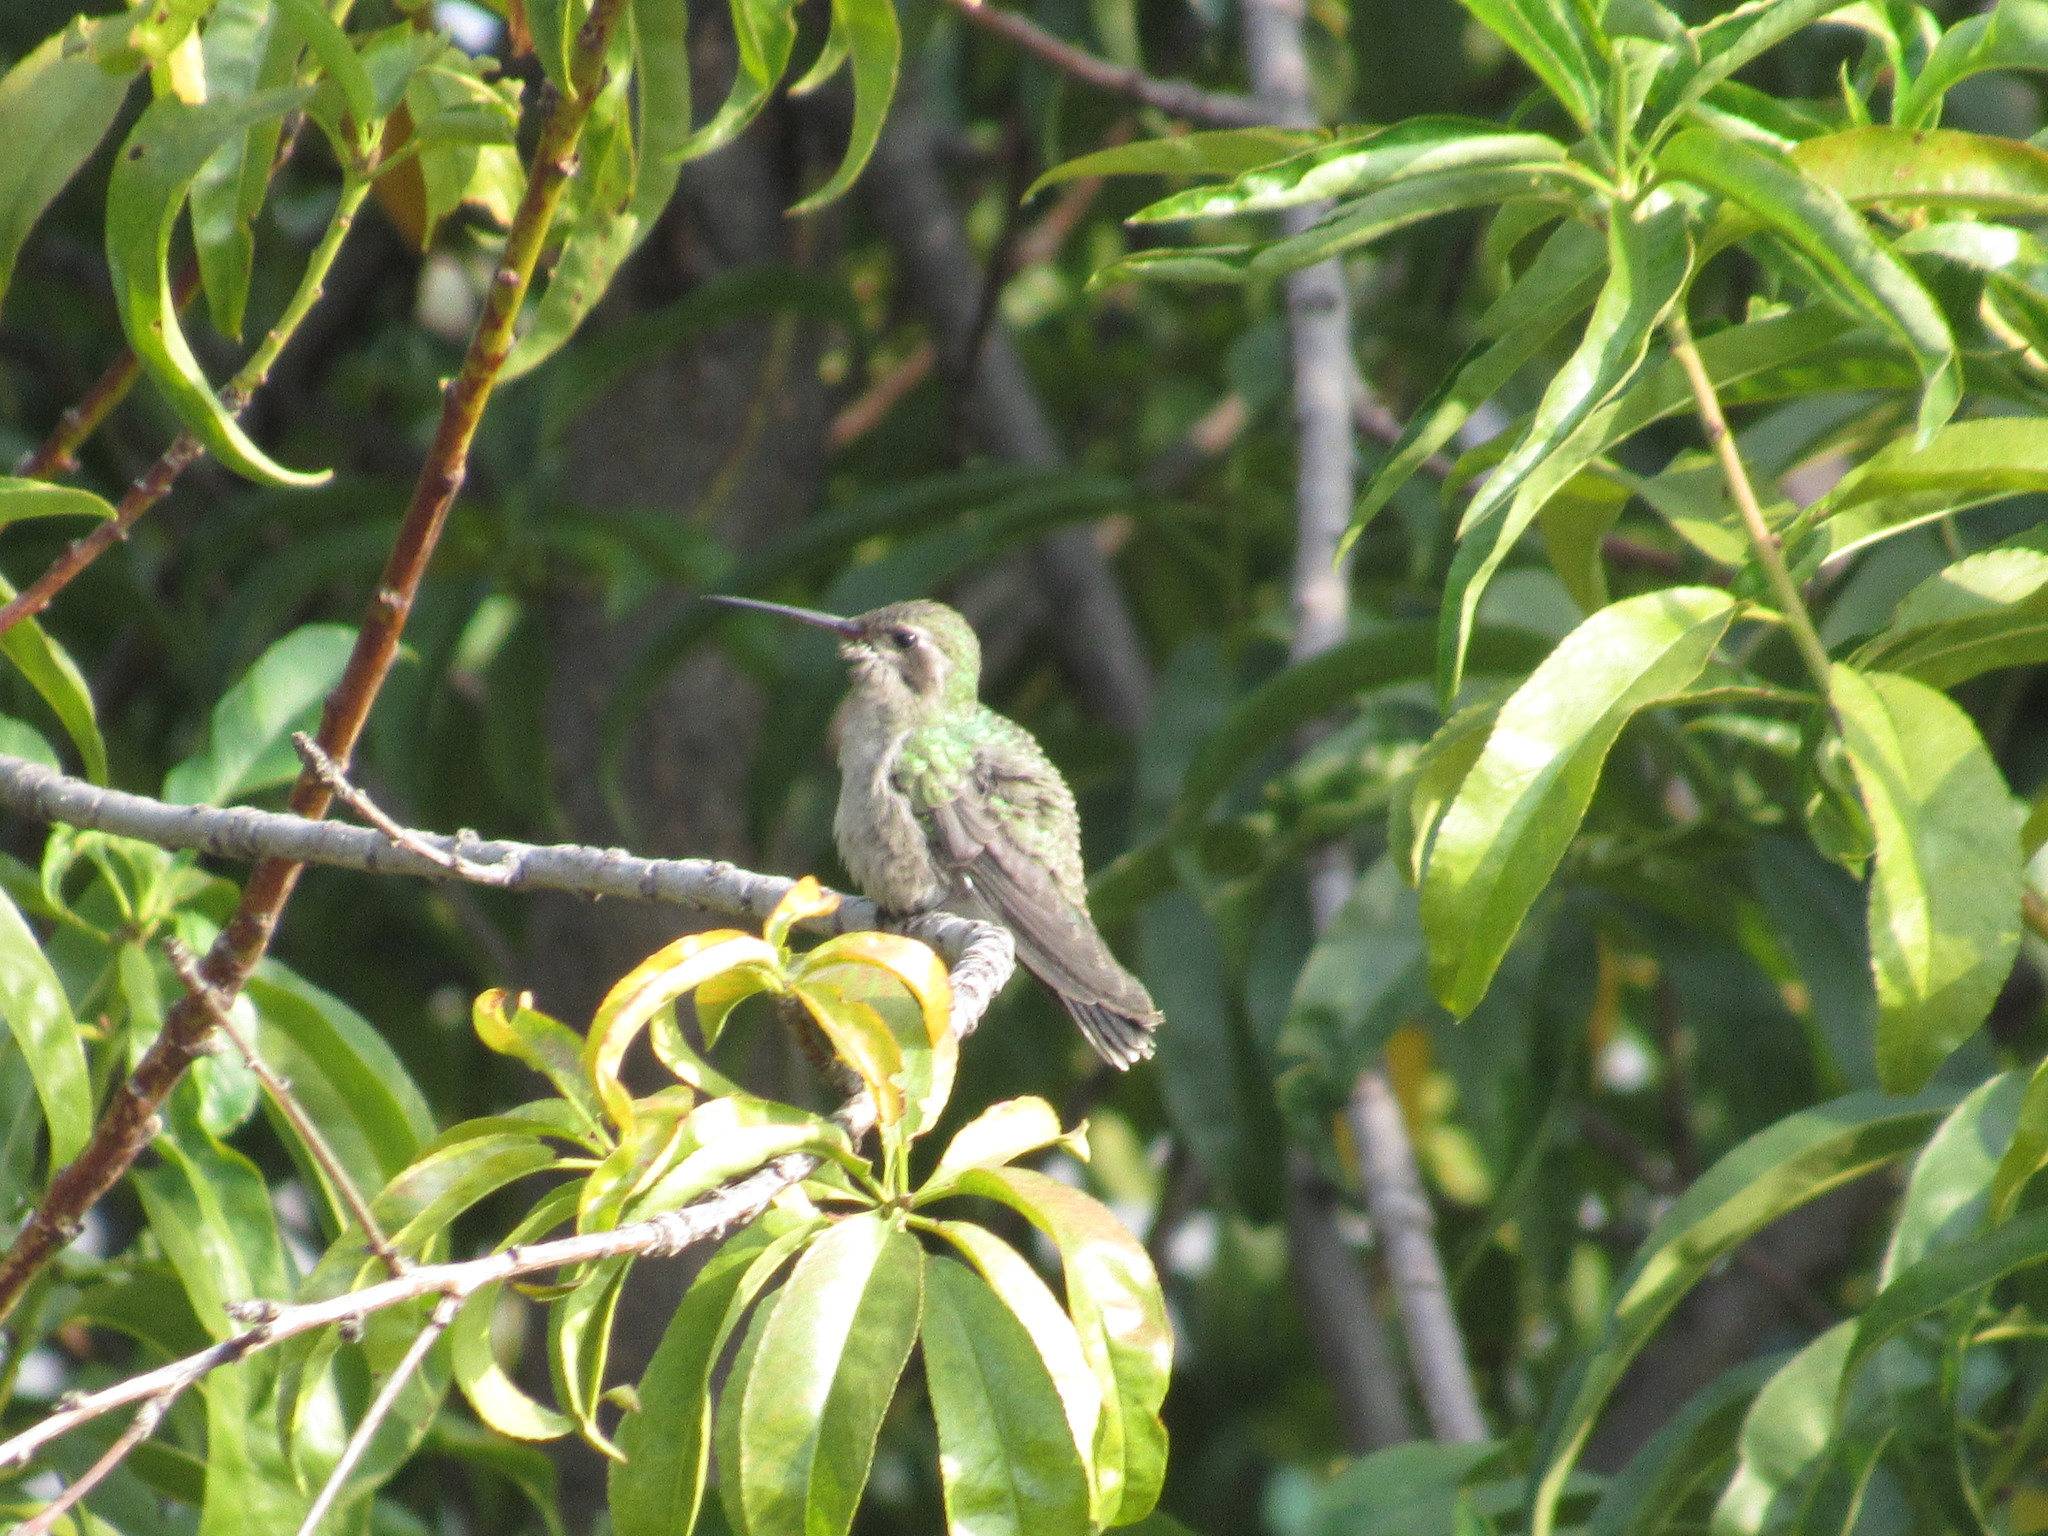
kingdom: Animalia
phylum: Chordata
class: Aves
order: Apodiformes
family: Trochilidae
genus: Cynanthus
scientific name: Cynanthus latirostris
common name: Broad-billed hummingbird
